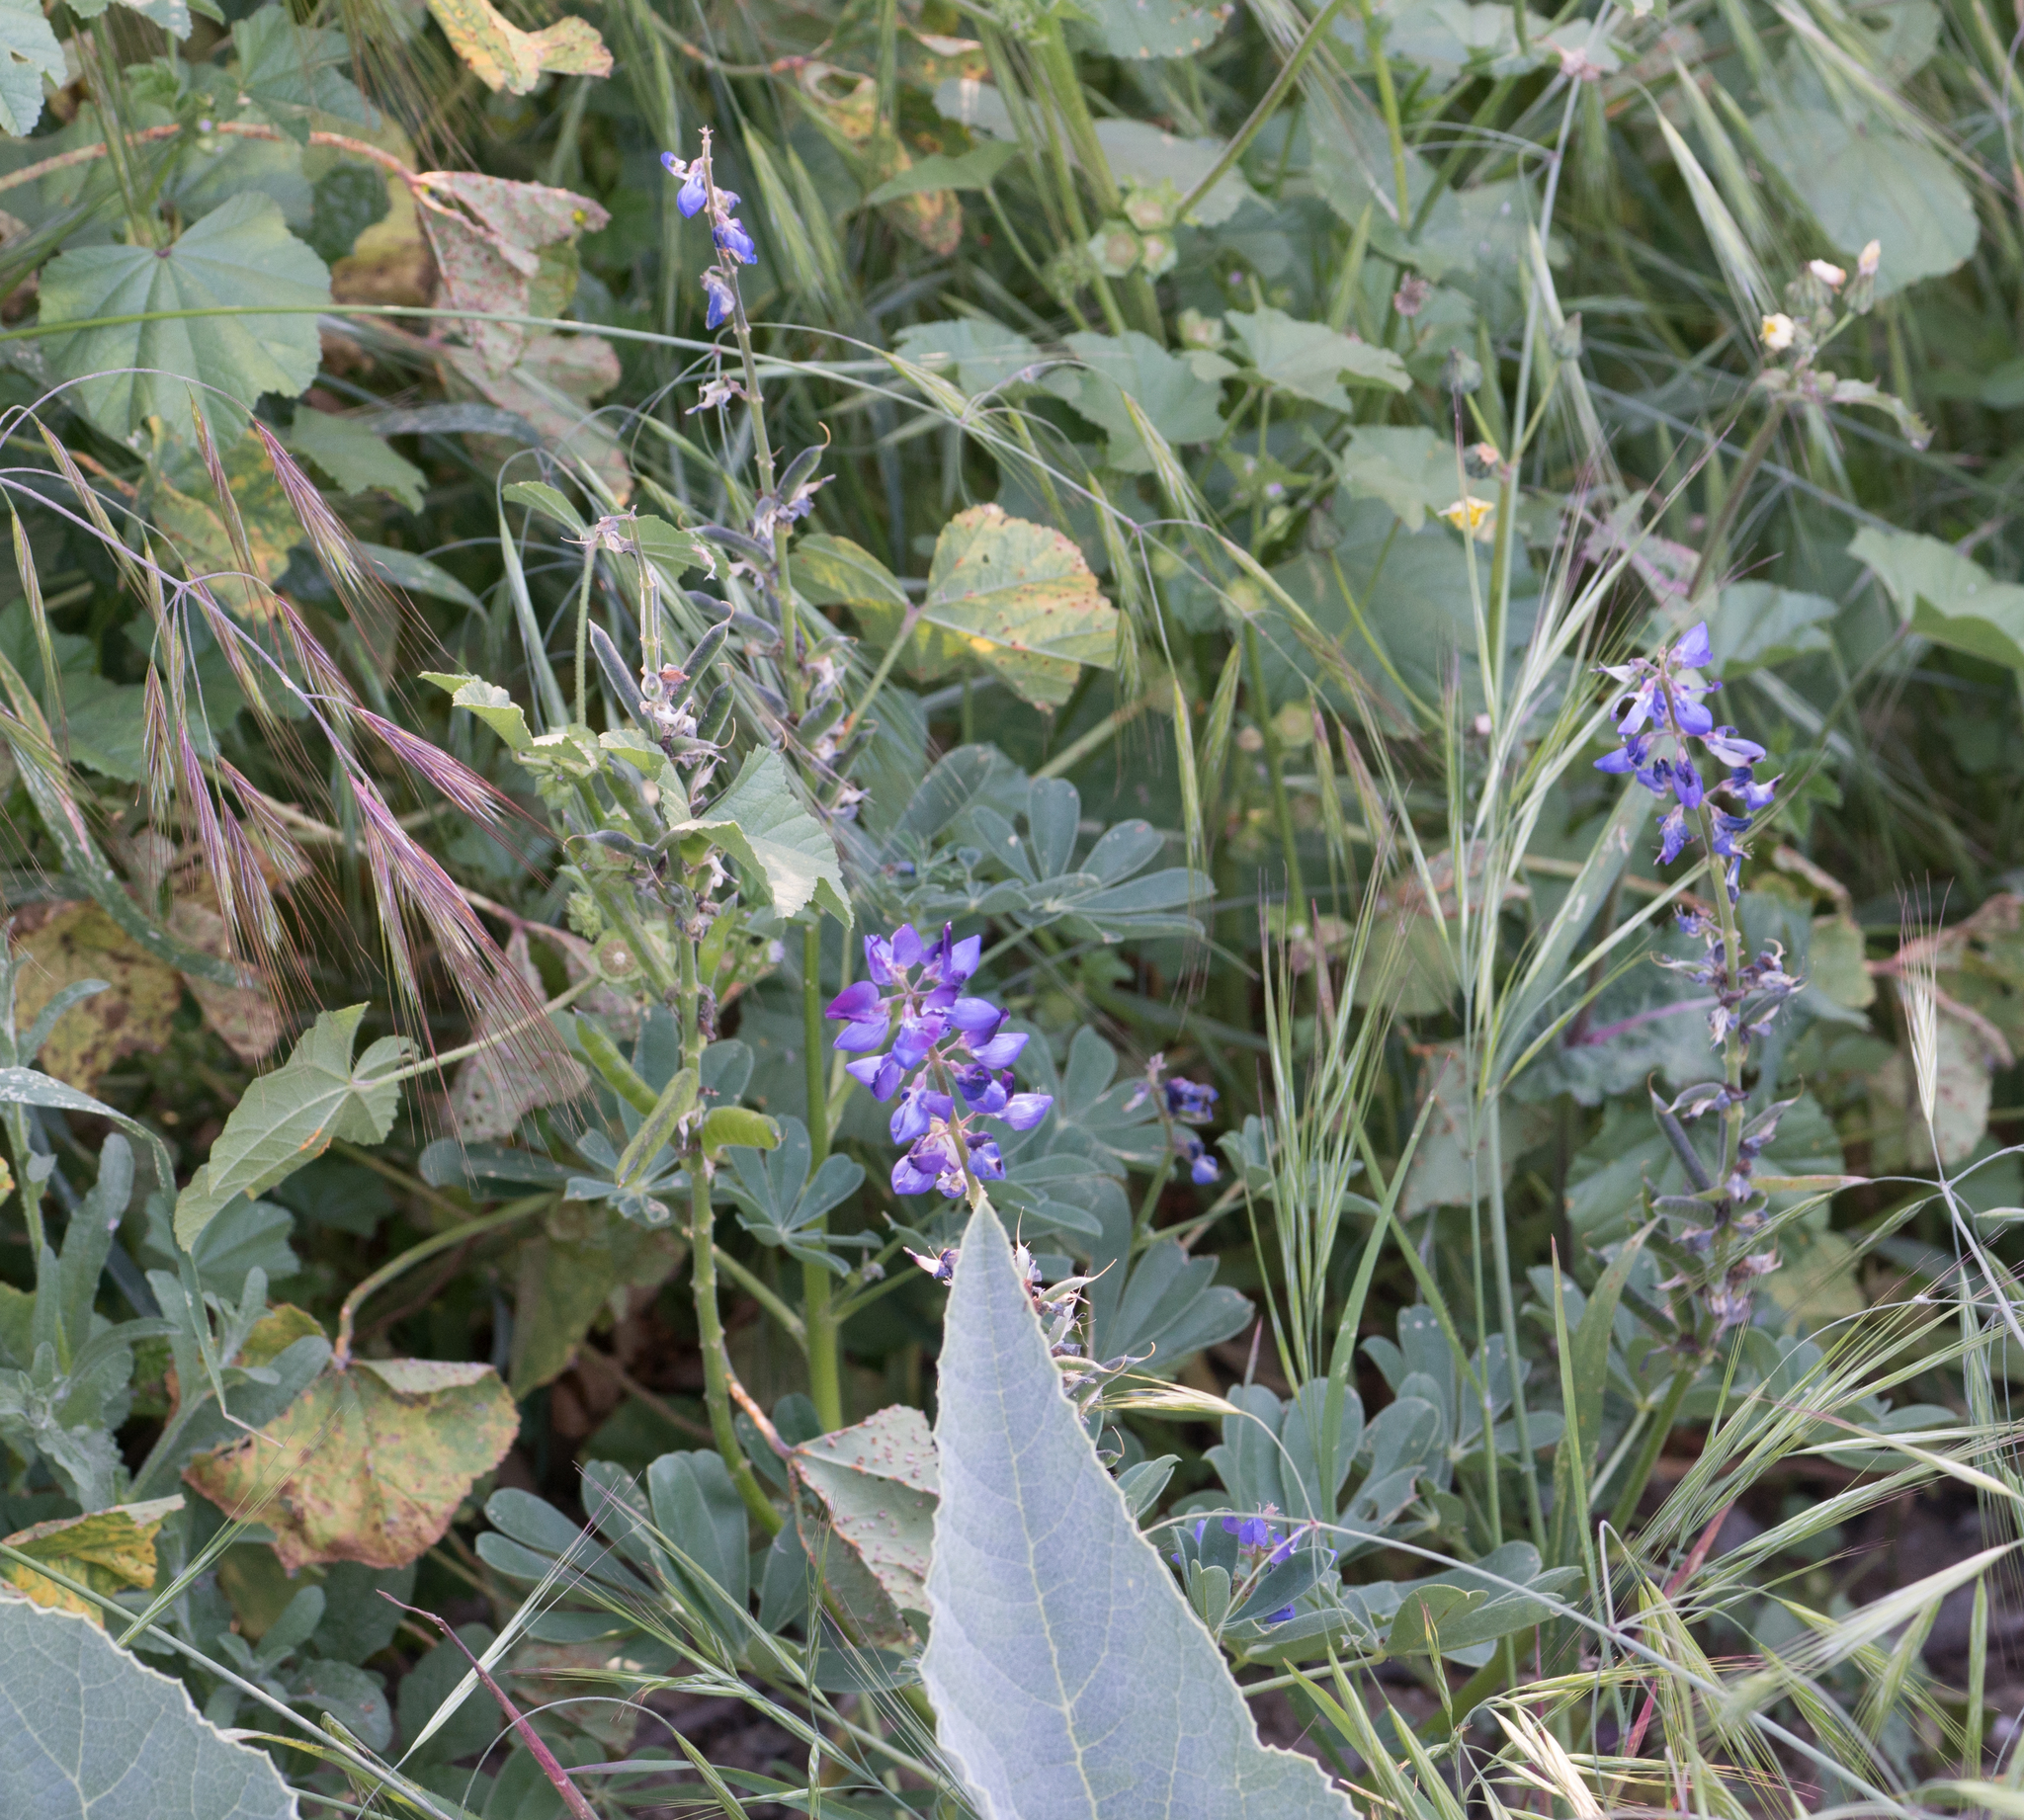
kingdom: Plantae
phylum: Tracheophyta
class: Magnoliopsida
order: Fabales
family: Fabaceae
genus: Lupinus
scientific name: Lupinus succulentus
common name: Arroyo lupine
